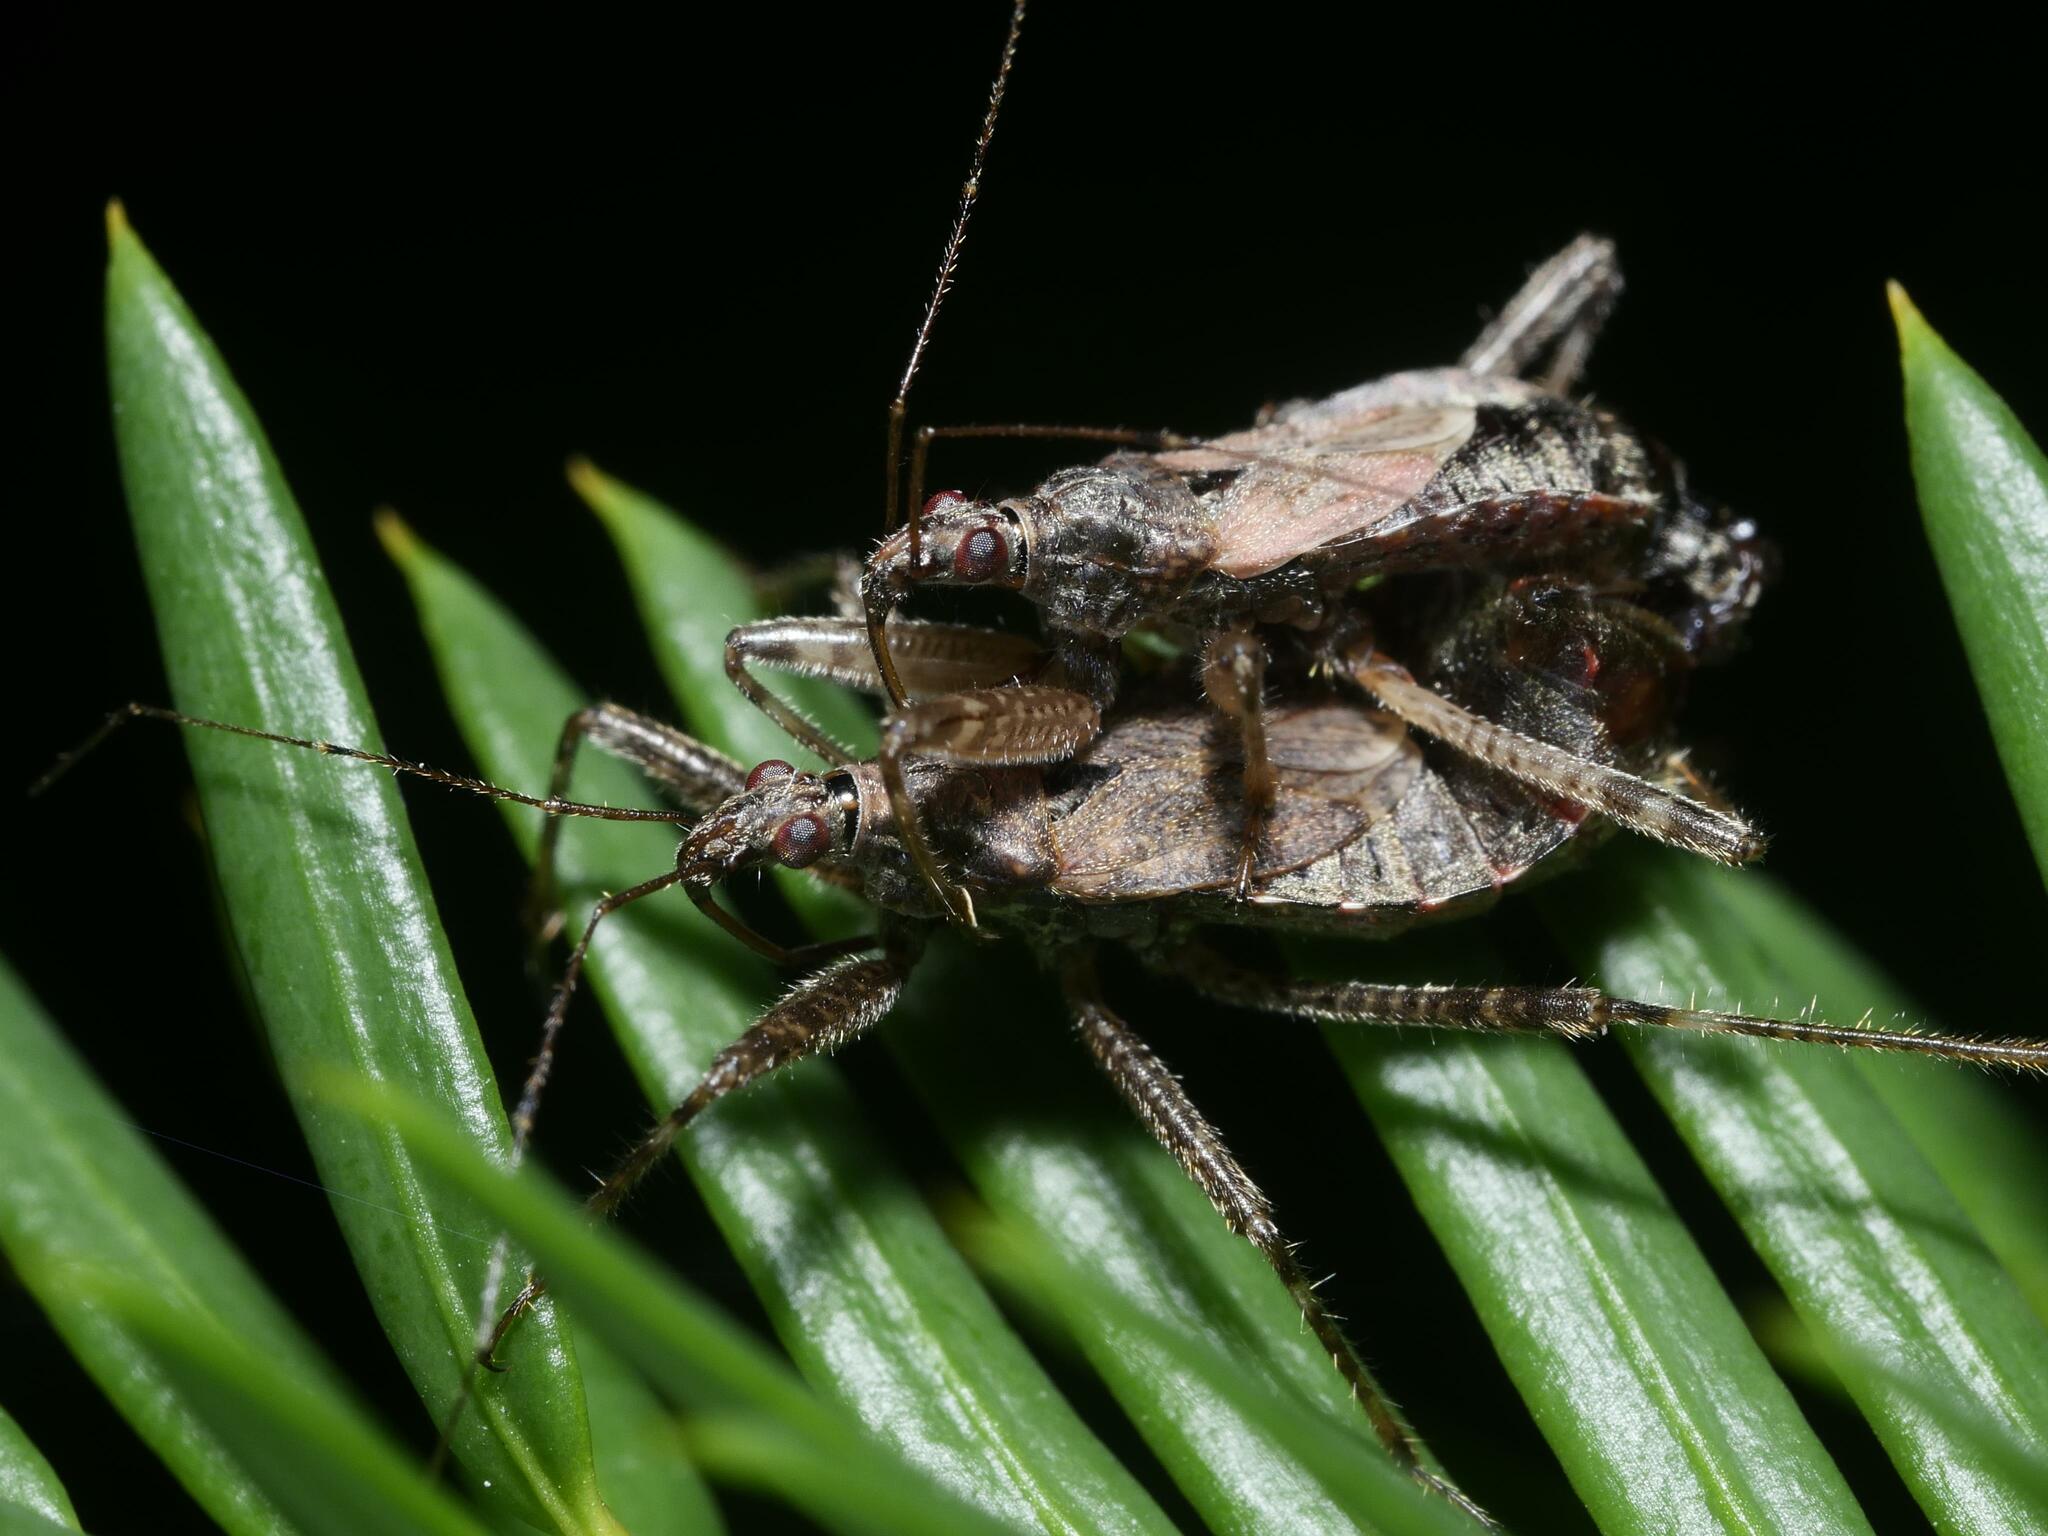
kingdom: Animalia
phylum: Arthropoda
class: Insecta
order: Hemiptera
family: Nabidae
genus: Himacerus
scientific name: Himacerus apterus
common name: Tree damsel bug
